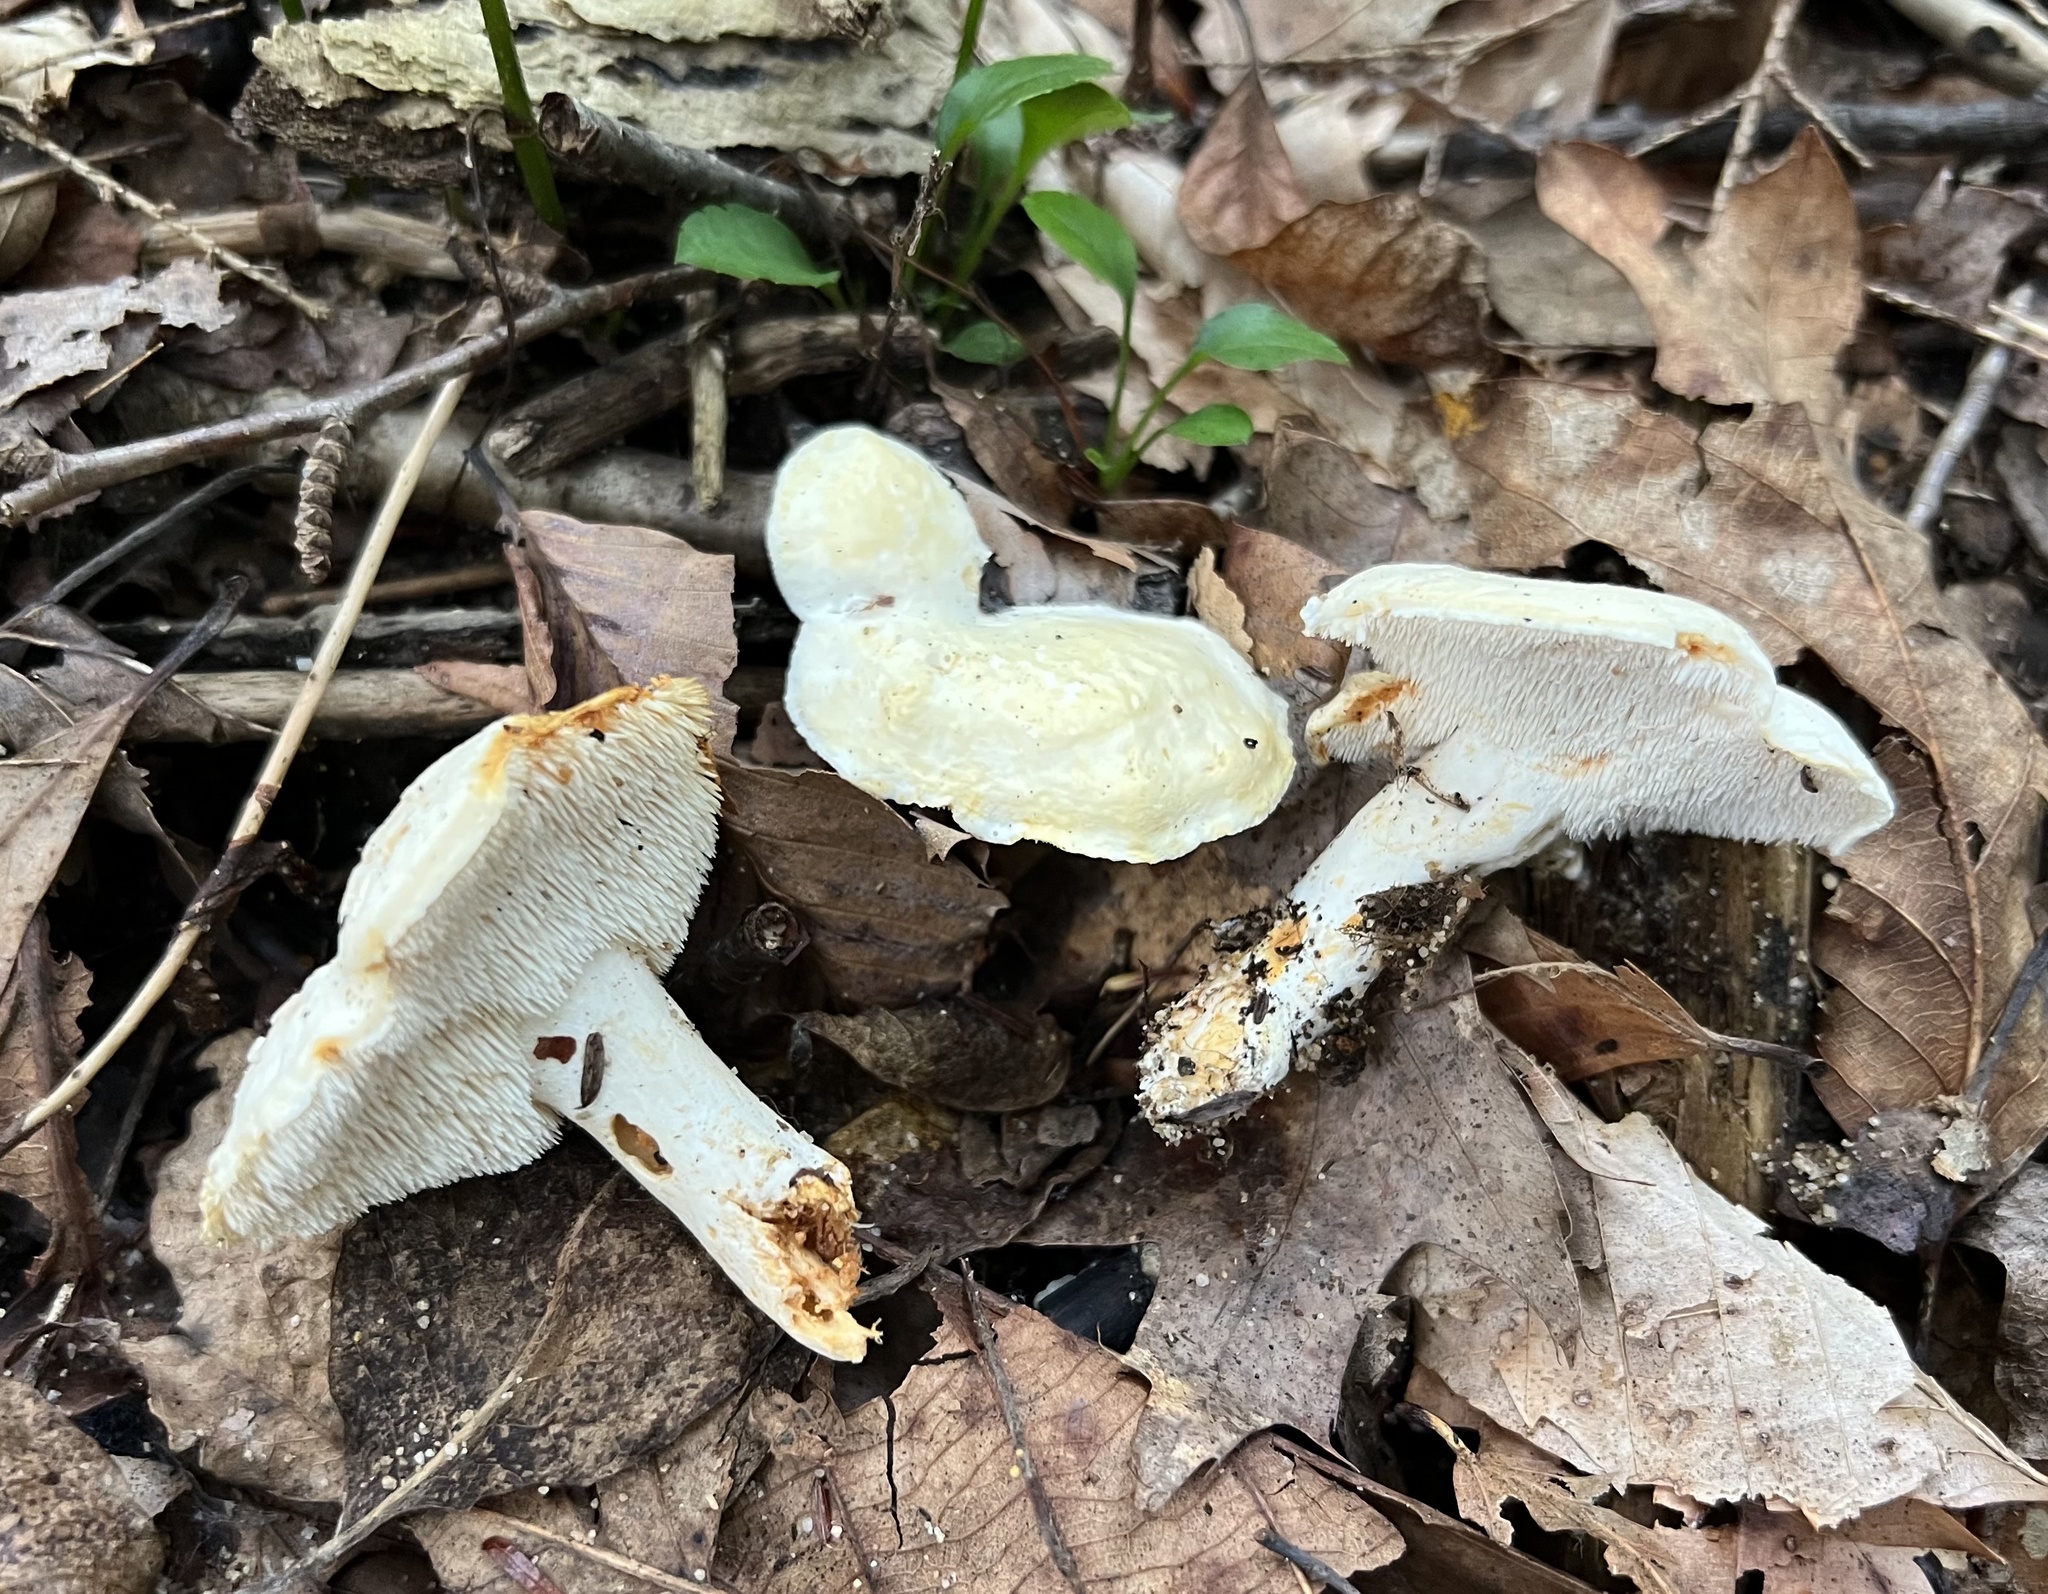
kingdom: Fungi
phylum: Basidiomycota
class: Agaricomycetes
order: Cantharellales
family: Hydnaceae
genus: Hydnum
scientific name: Hydnum albidum
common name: White hedgehog
